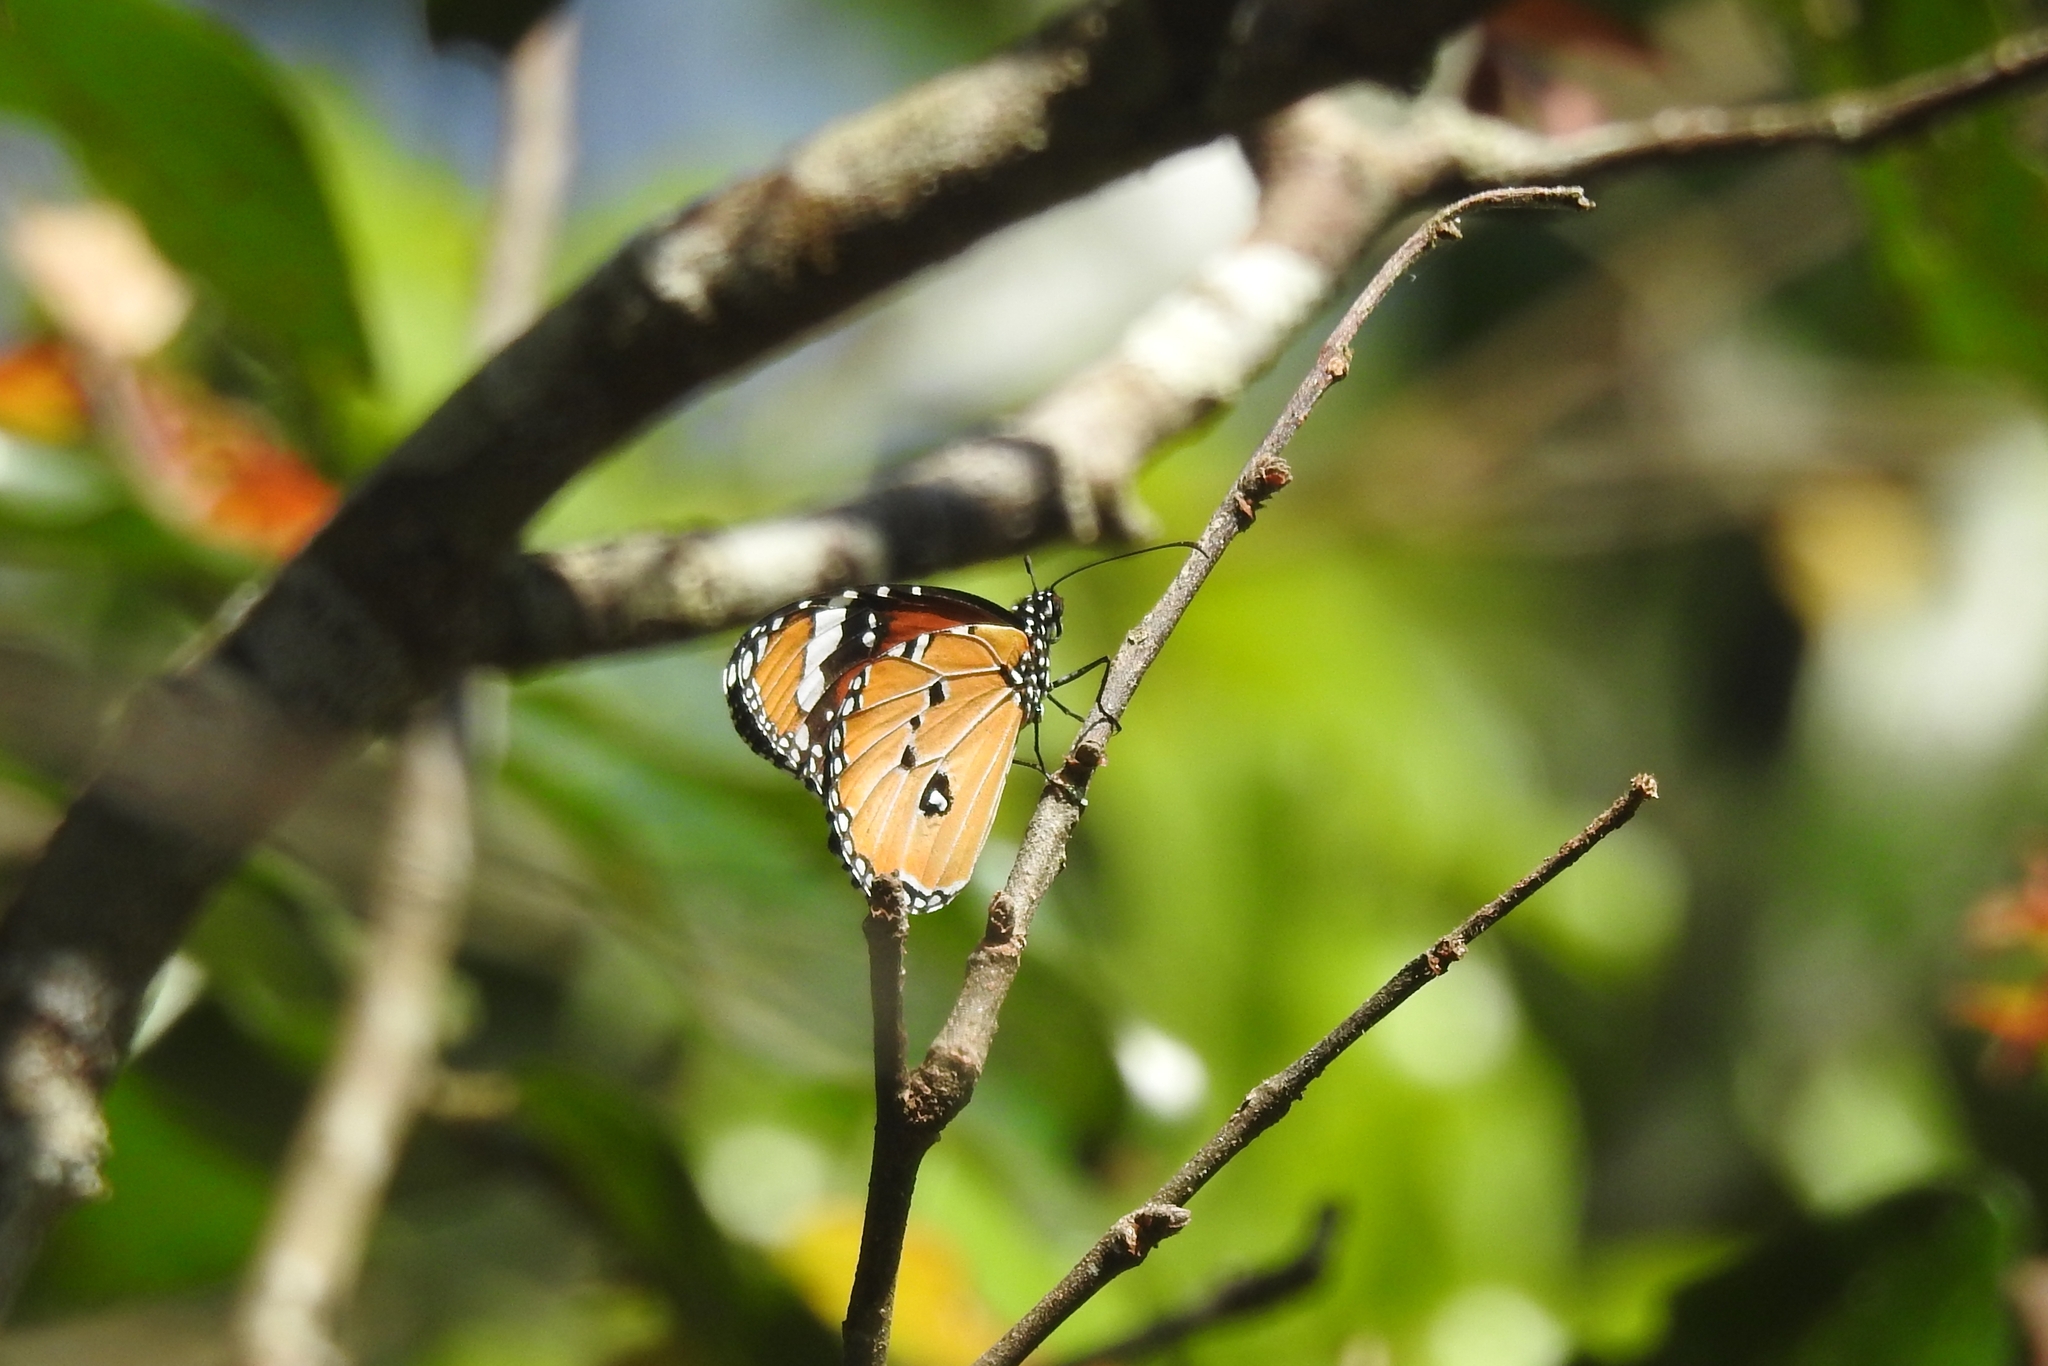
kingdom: Animalia
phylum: Arthropoda
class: Insecta
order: Lepidoptera
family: Nymphalidae
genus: Danaus
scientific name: Danaus chrysippus
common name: Plain tiger
